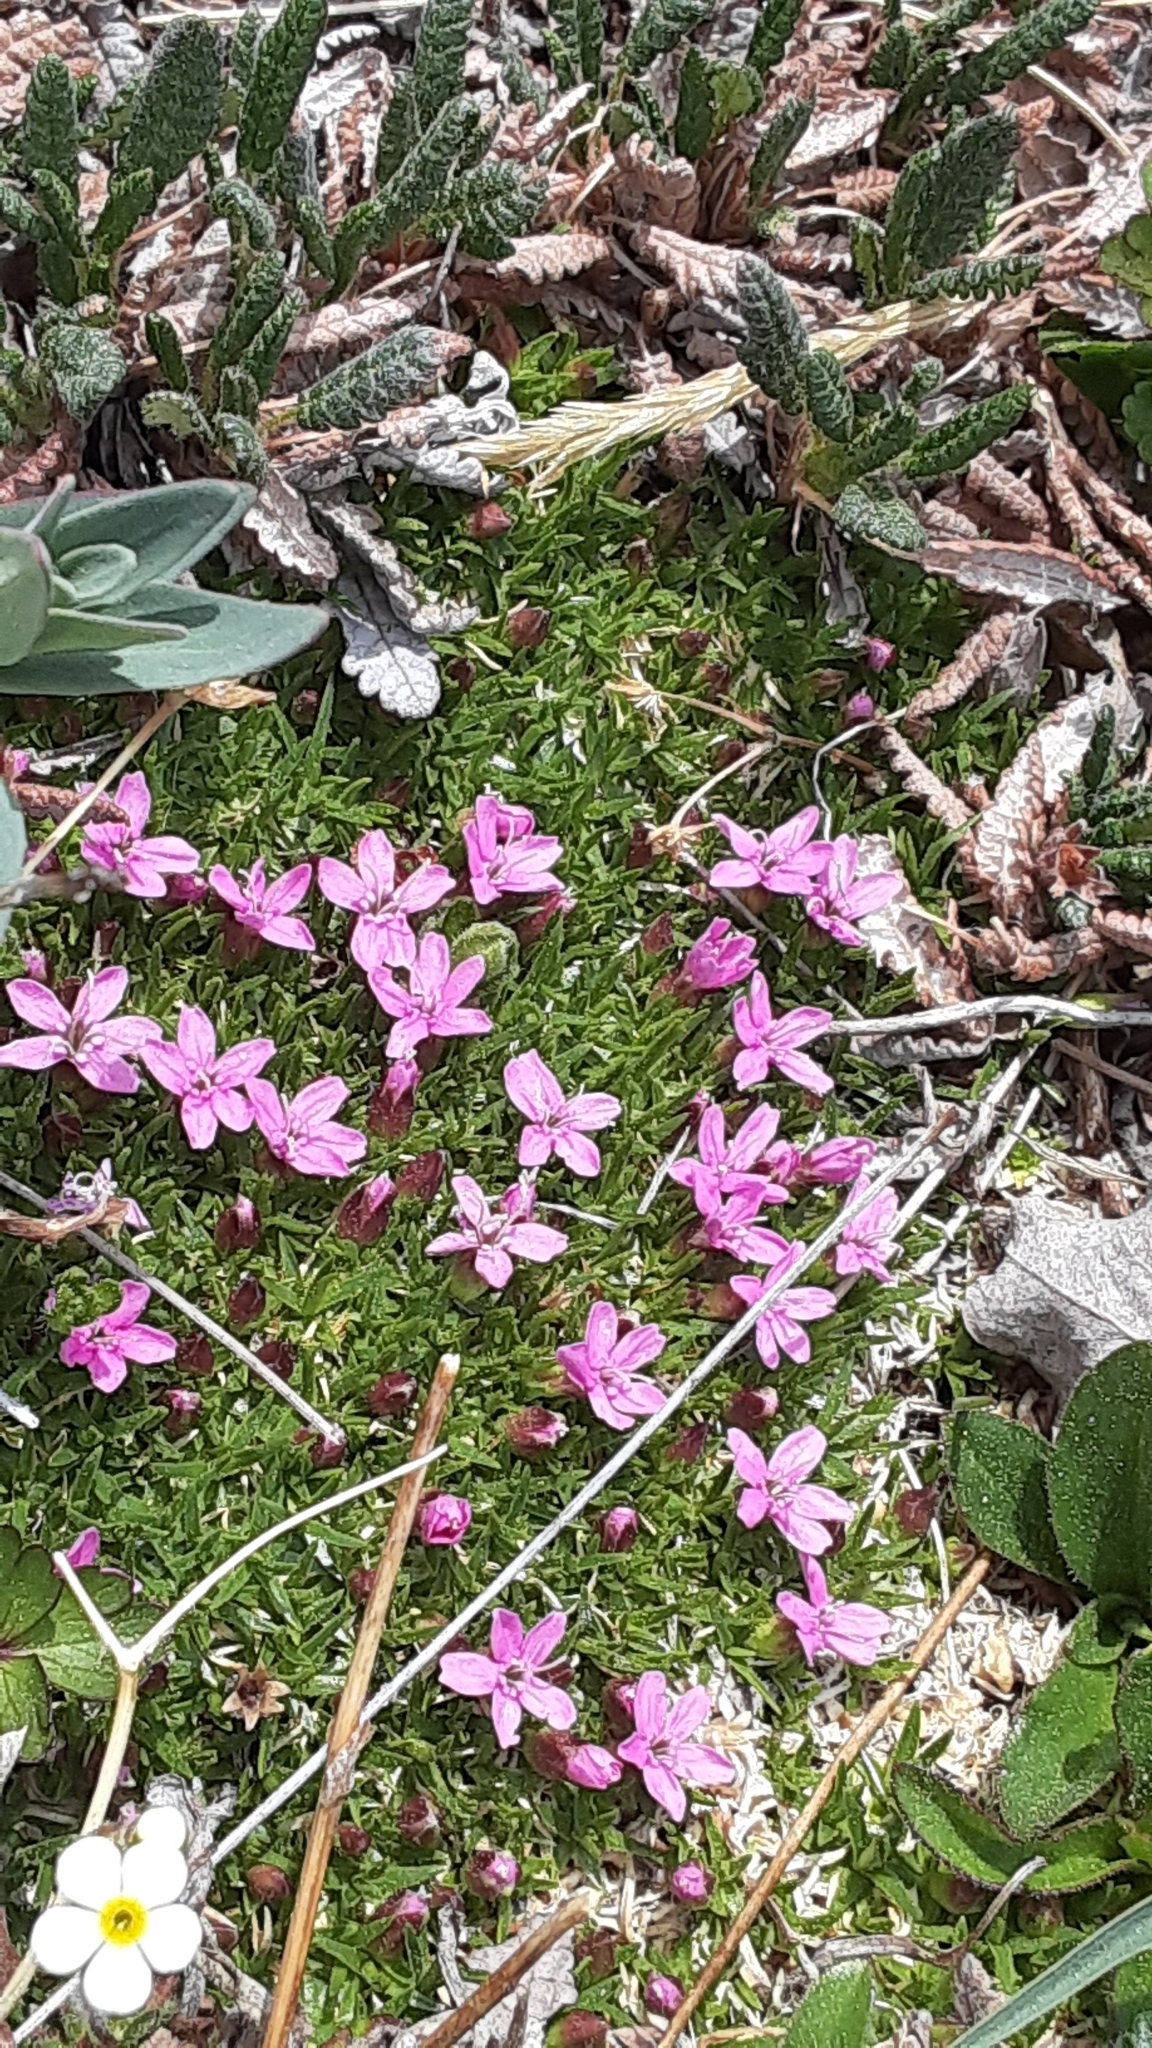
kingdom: Plantae
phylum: Tracheophyta
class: Magnoliopsida
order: Caryophyllales
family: Caryophyllaceae
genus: Silene
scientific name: Silene acaulis
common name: Moss campion
